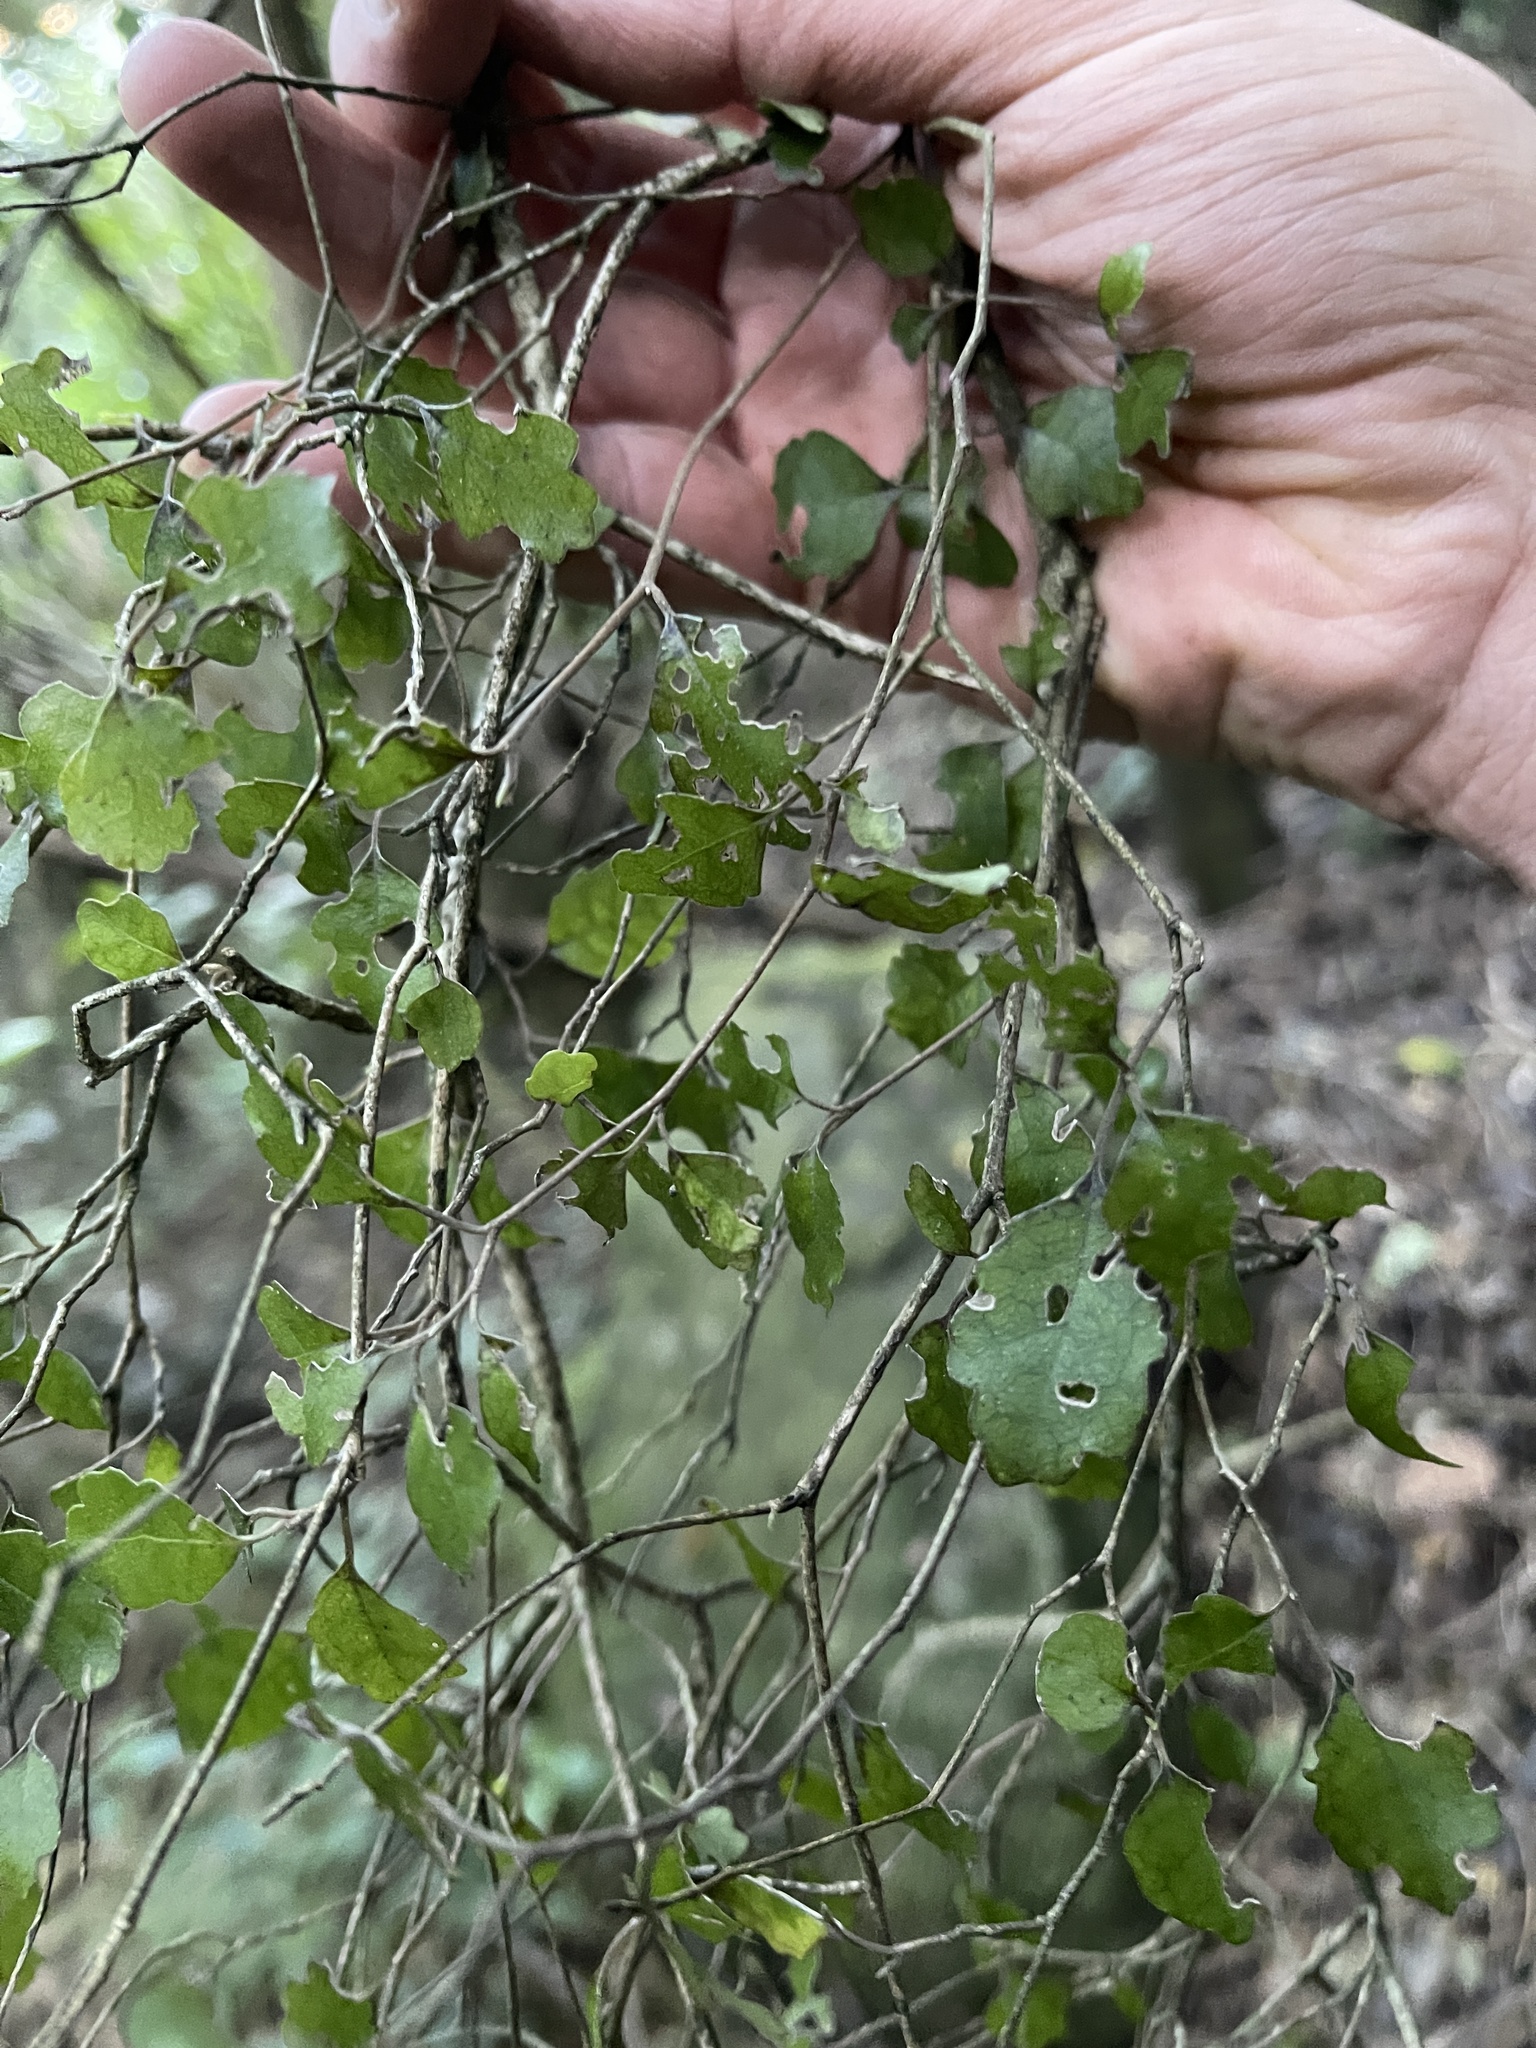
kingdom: Plantae
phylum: Tracheophyta
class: Magnoliopsida
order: Apiales
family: Pennantiaceae
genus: Pennantia
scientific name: Pennantia corymbosa
